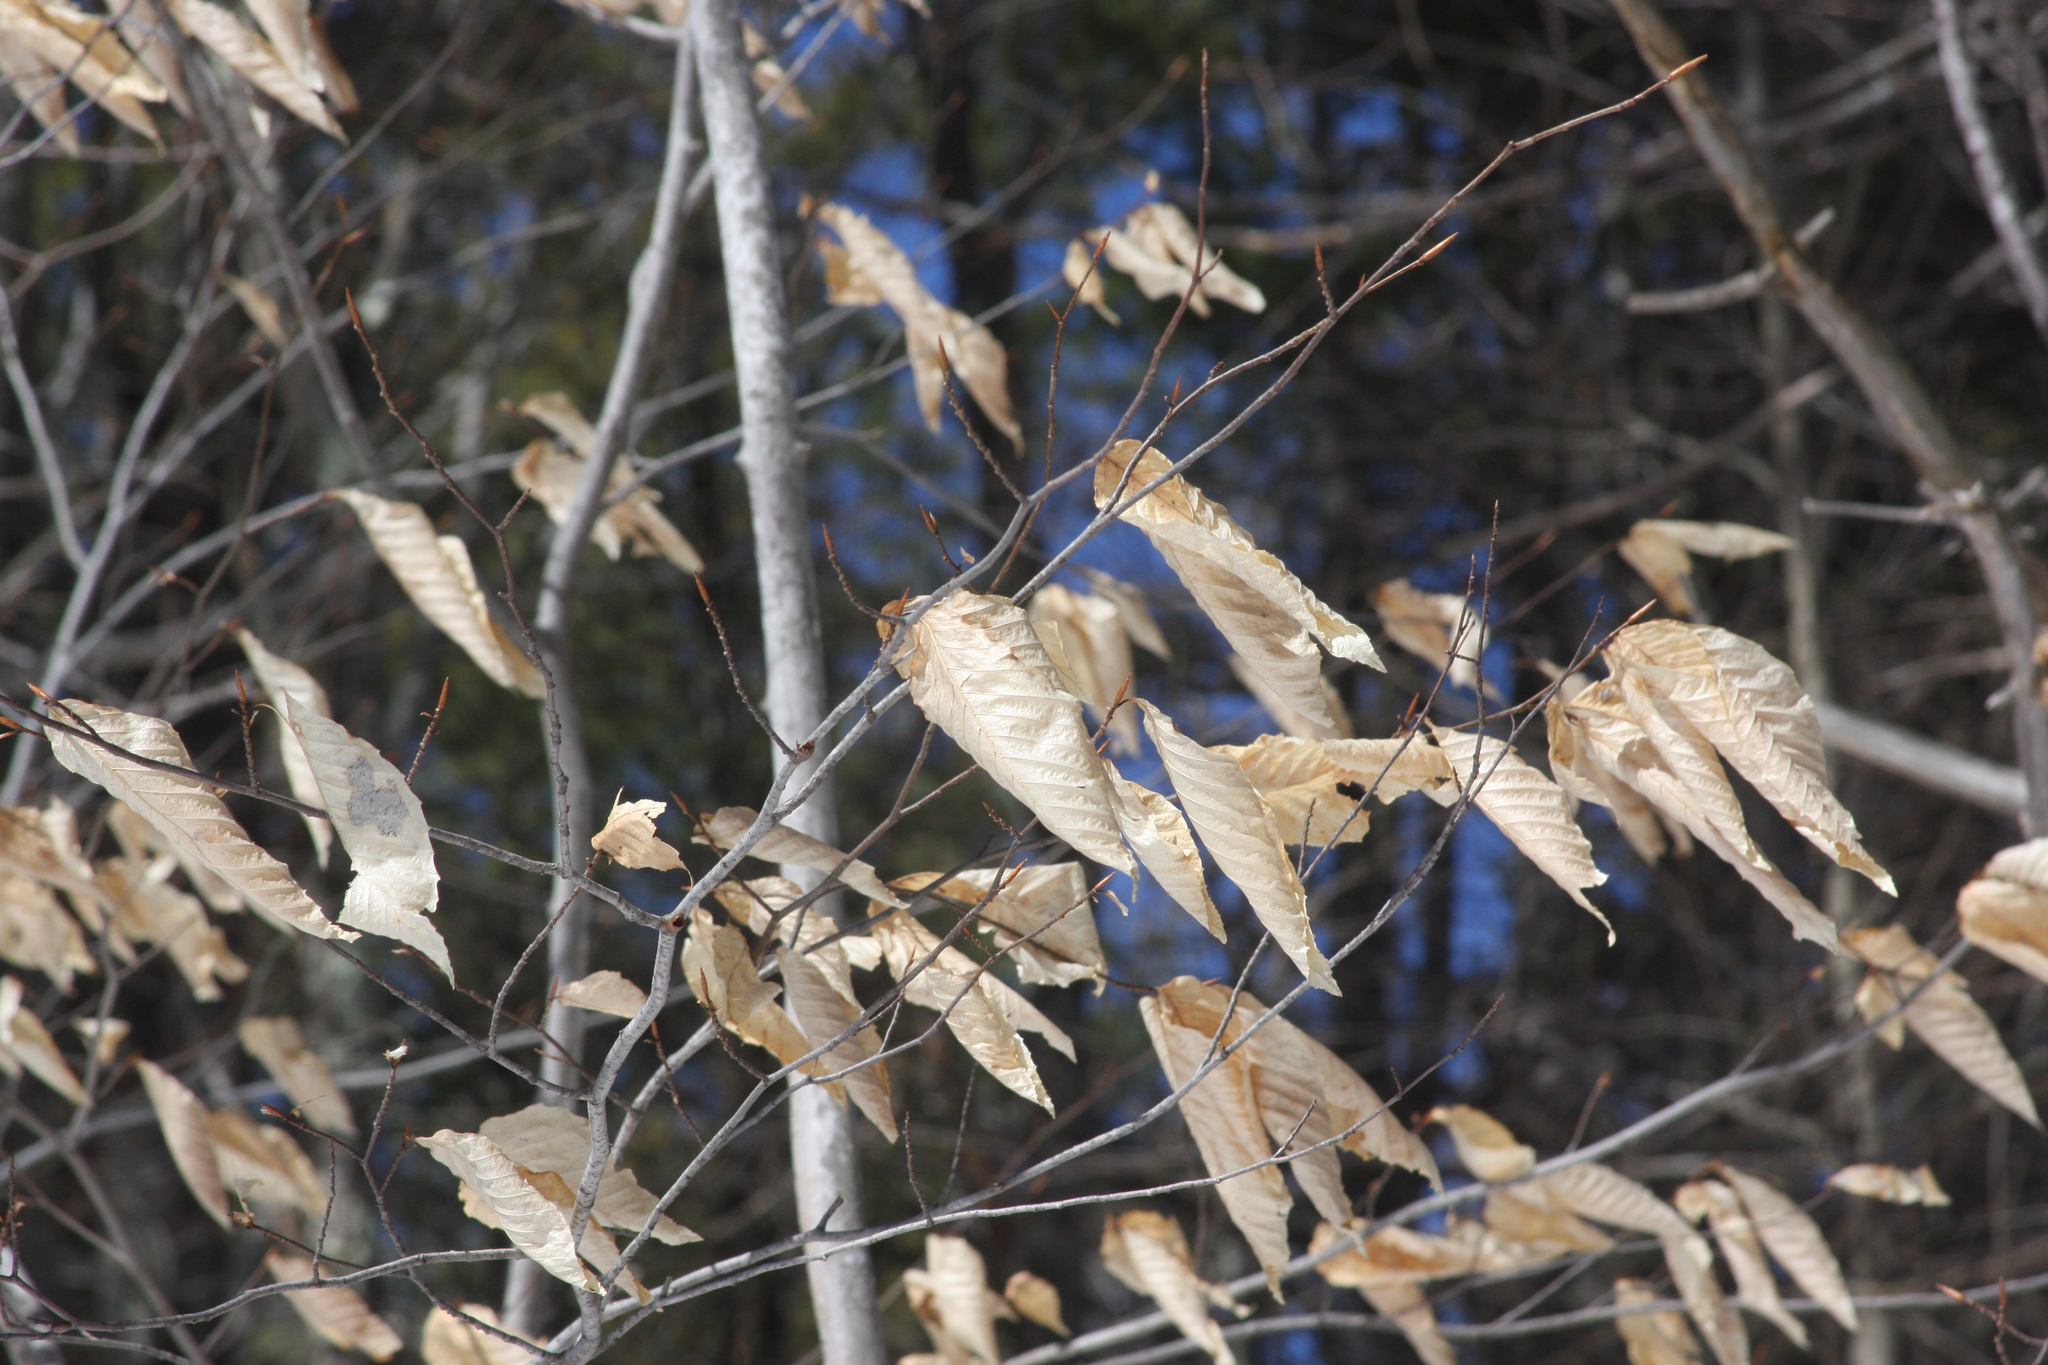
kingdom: Plantae
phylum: Tracheophyta
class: Magnoliopsida
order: Fagales
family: Fagaceae
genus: Fagus
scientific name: Fagus grandifolia
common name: American beech
